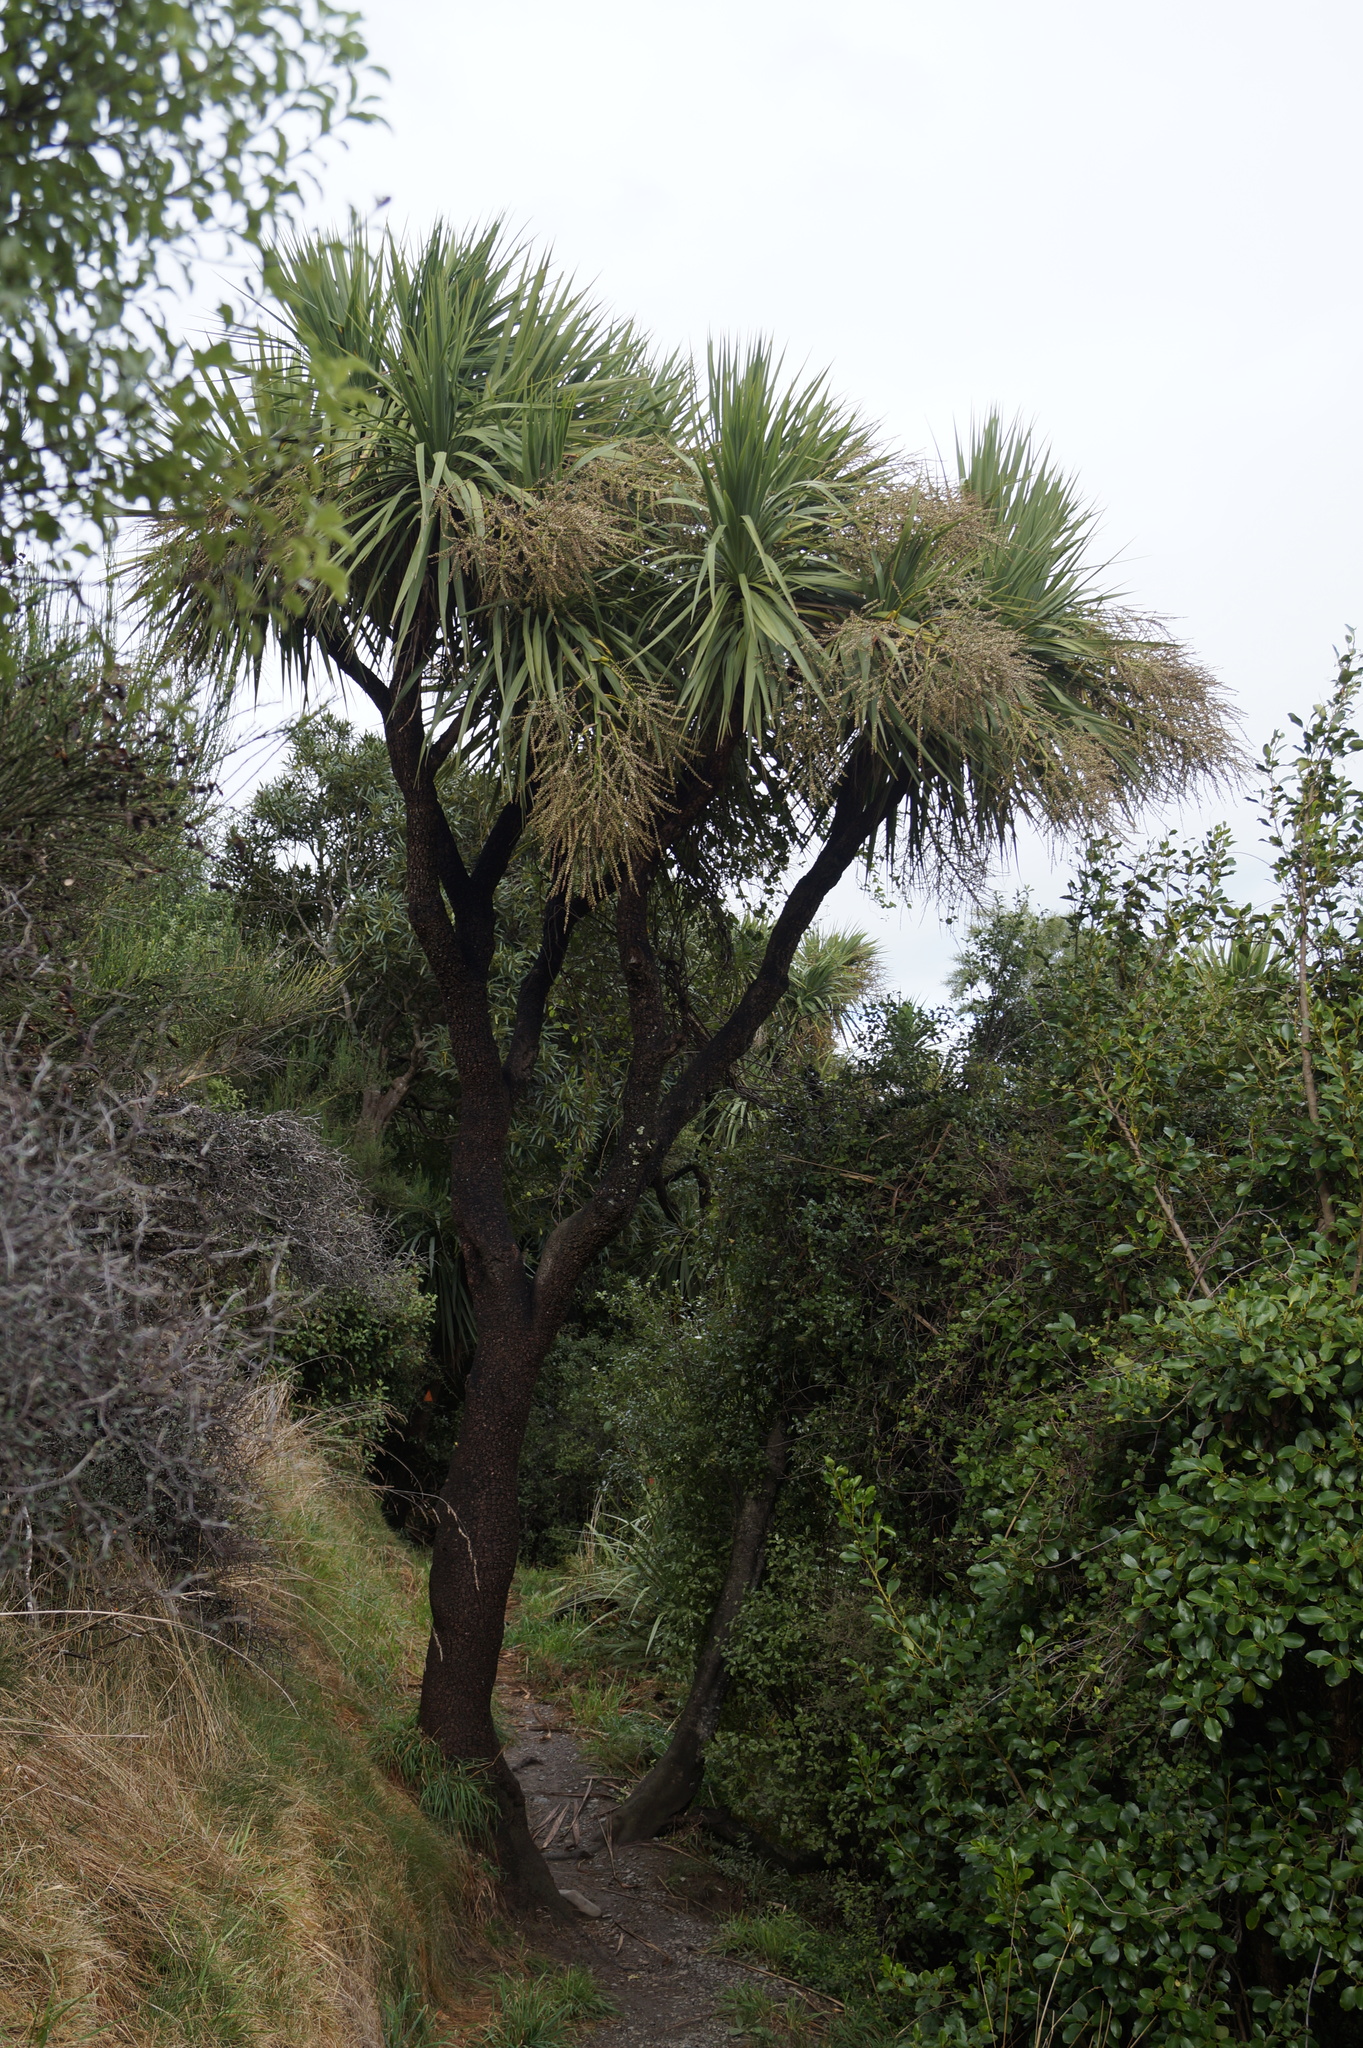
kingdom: Plantae
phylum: Tracheophyta
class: Liliopsida
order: Asparagales
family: Asparagaceae
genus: Cordyline
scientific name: Cordyline australis
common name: Cabbage-palm
